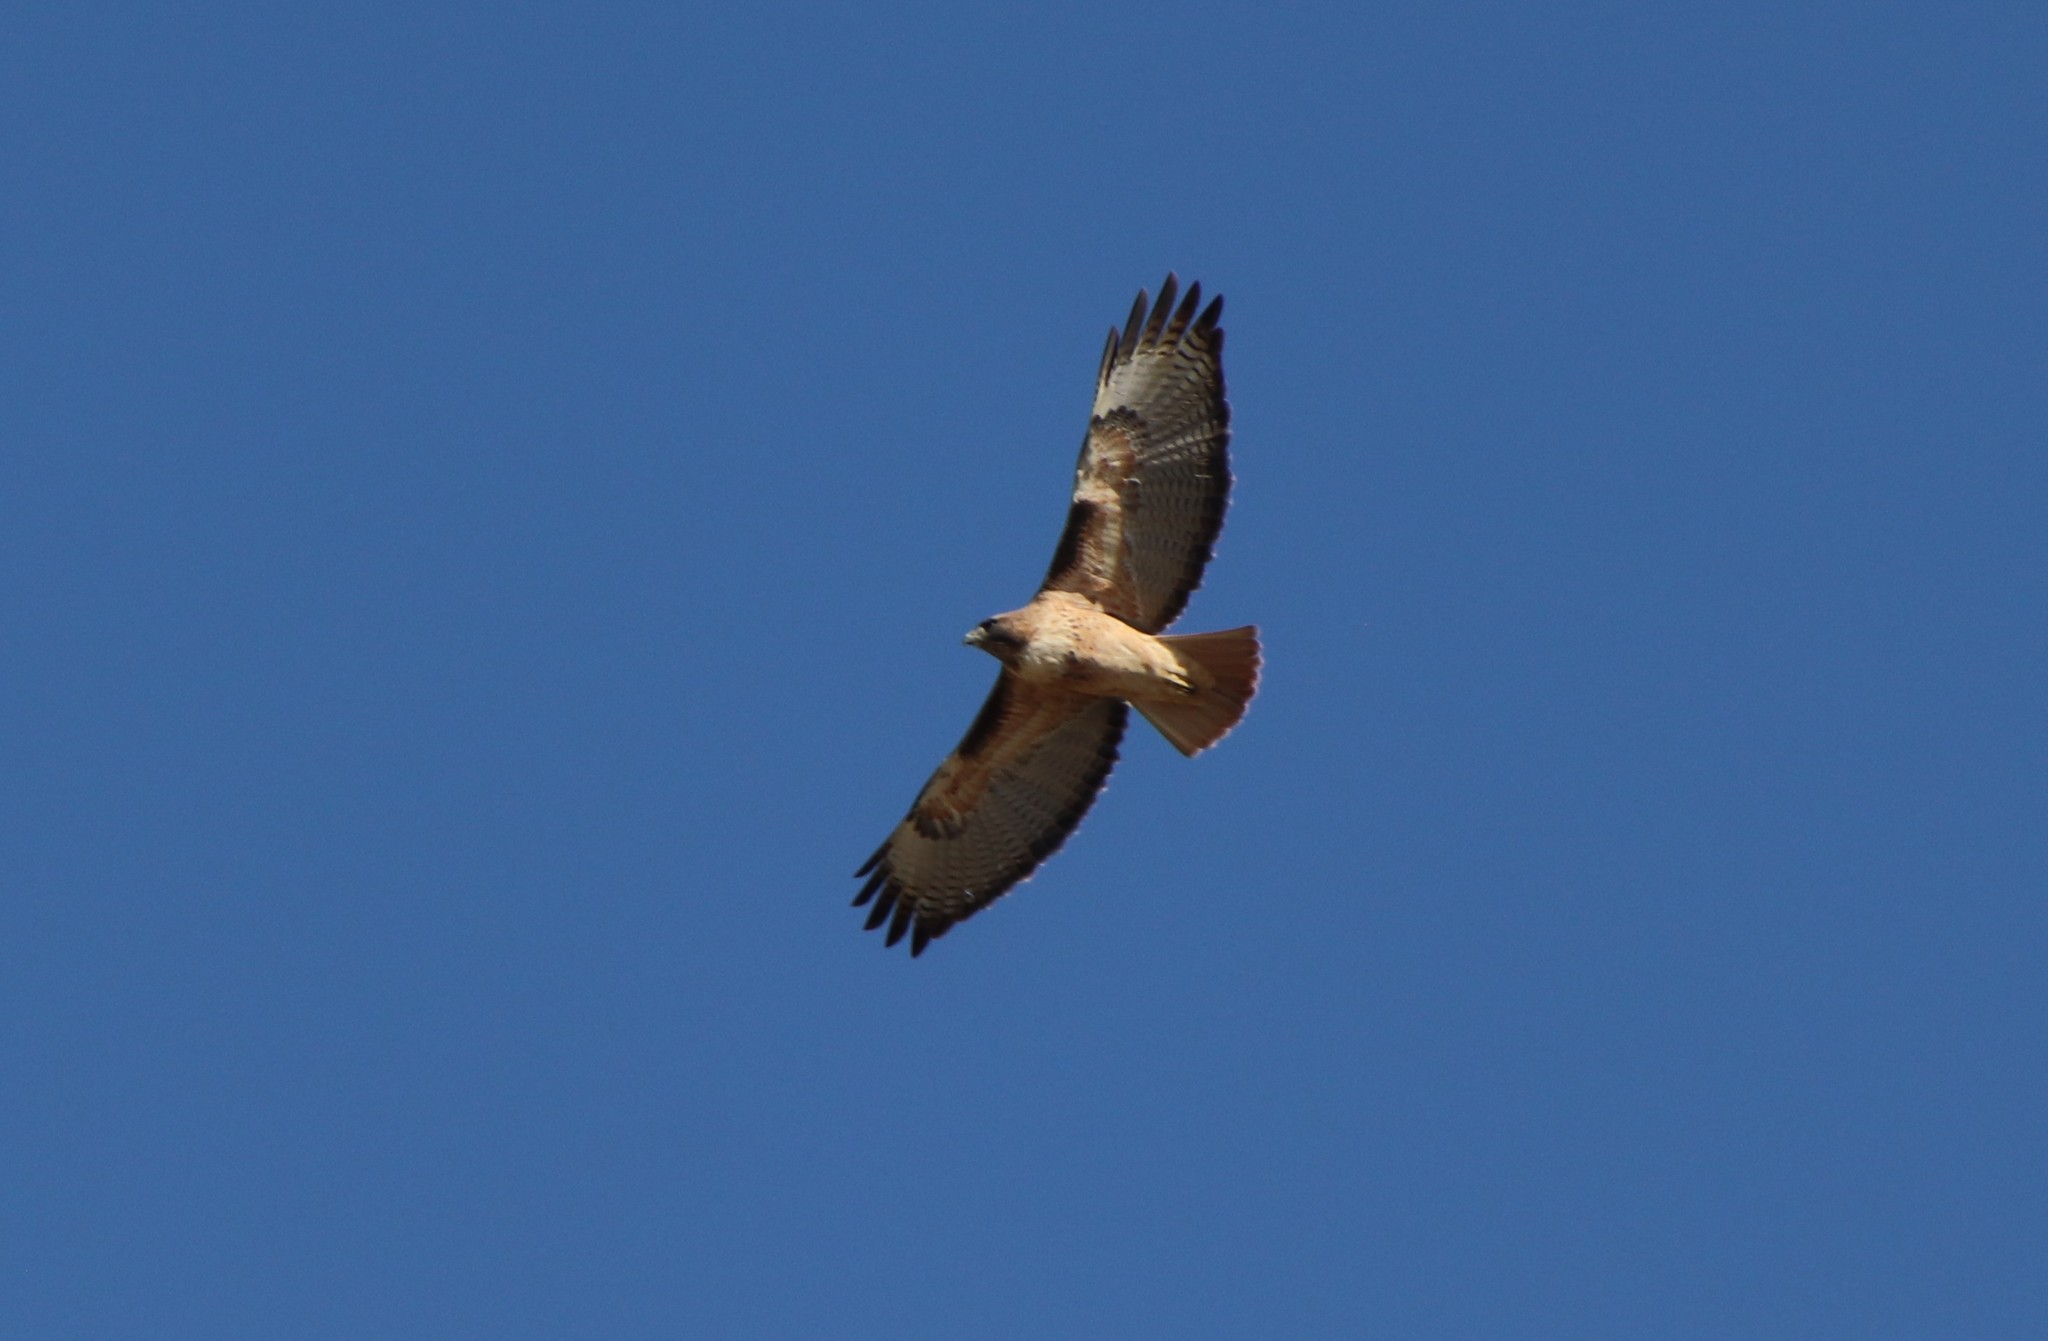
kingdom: Animalia
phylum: Chordata
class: Aves
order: Accipitriformes
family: Accipitridae
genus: Buteo
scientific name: Buteo jamaicensis
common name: Red-tailed hawk
